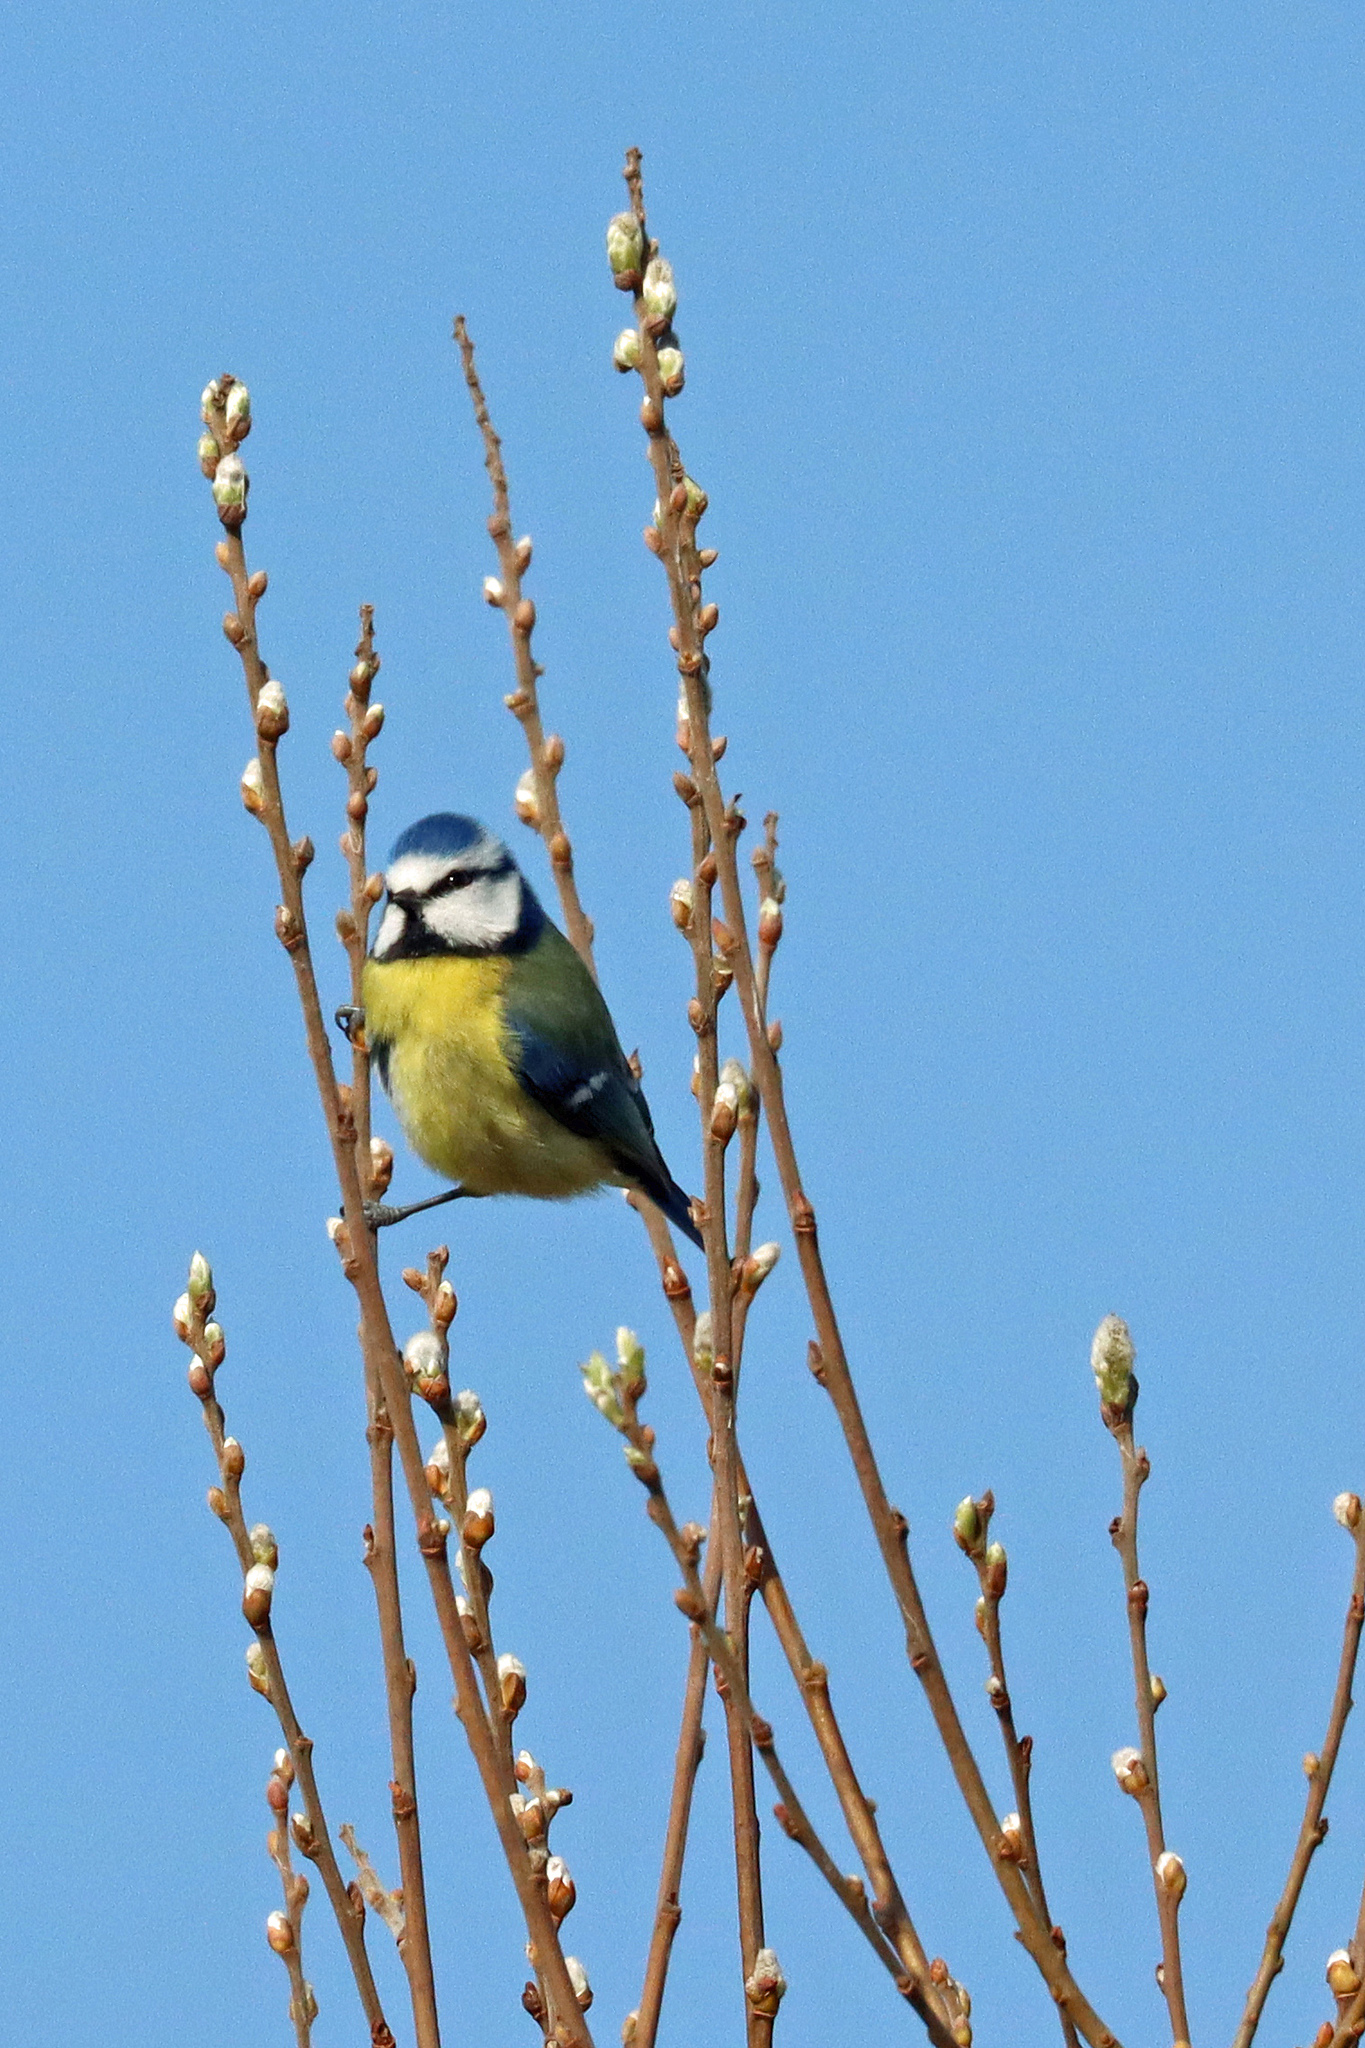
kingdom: Animalia
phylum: Chordata
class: Aves
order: Passeriformes
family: Paridae
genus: Cyanistes
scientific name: Cyanistes caeruleus
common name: Eurasian blue tit
